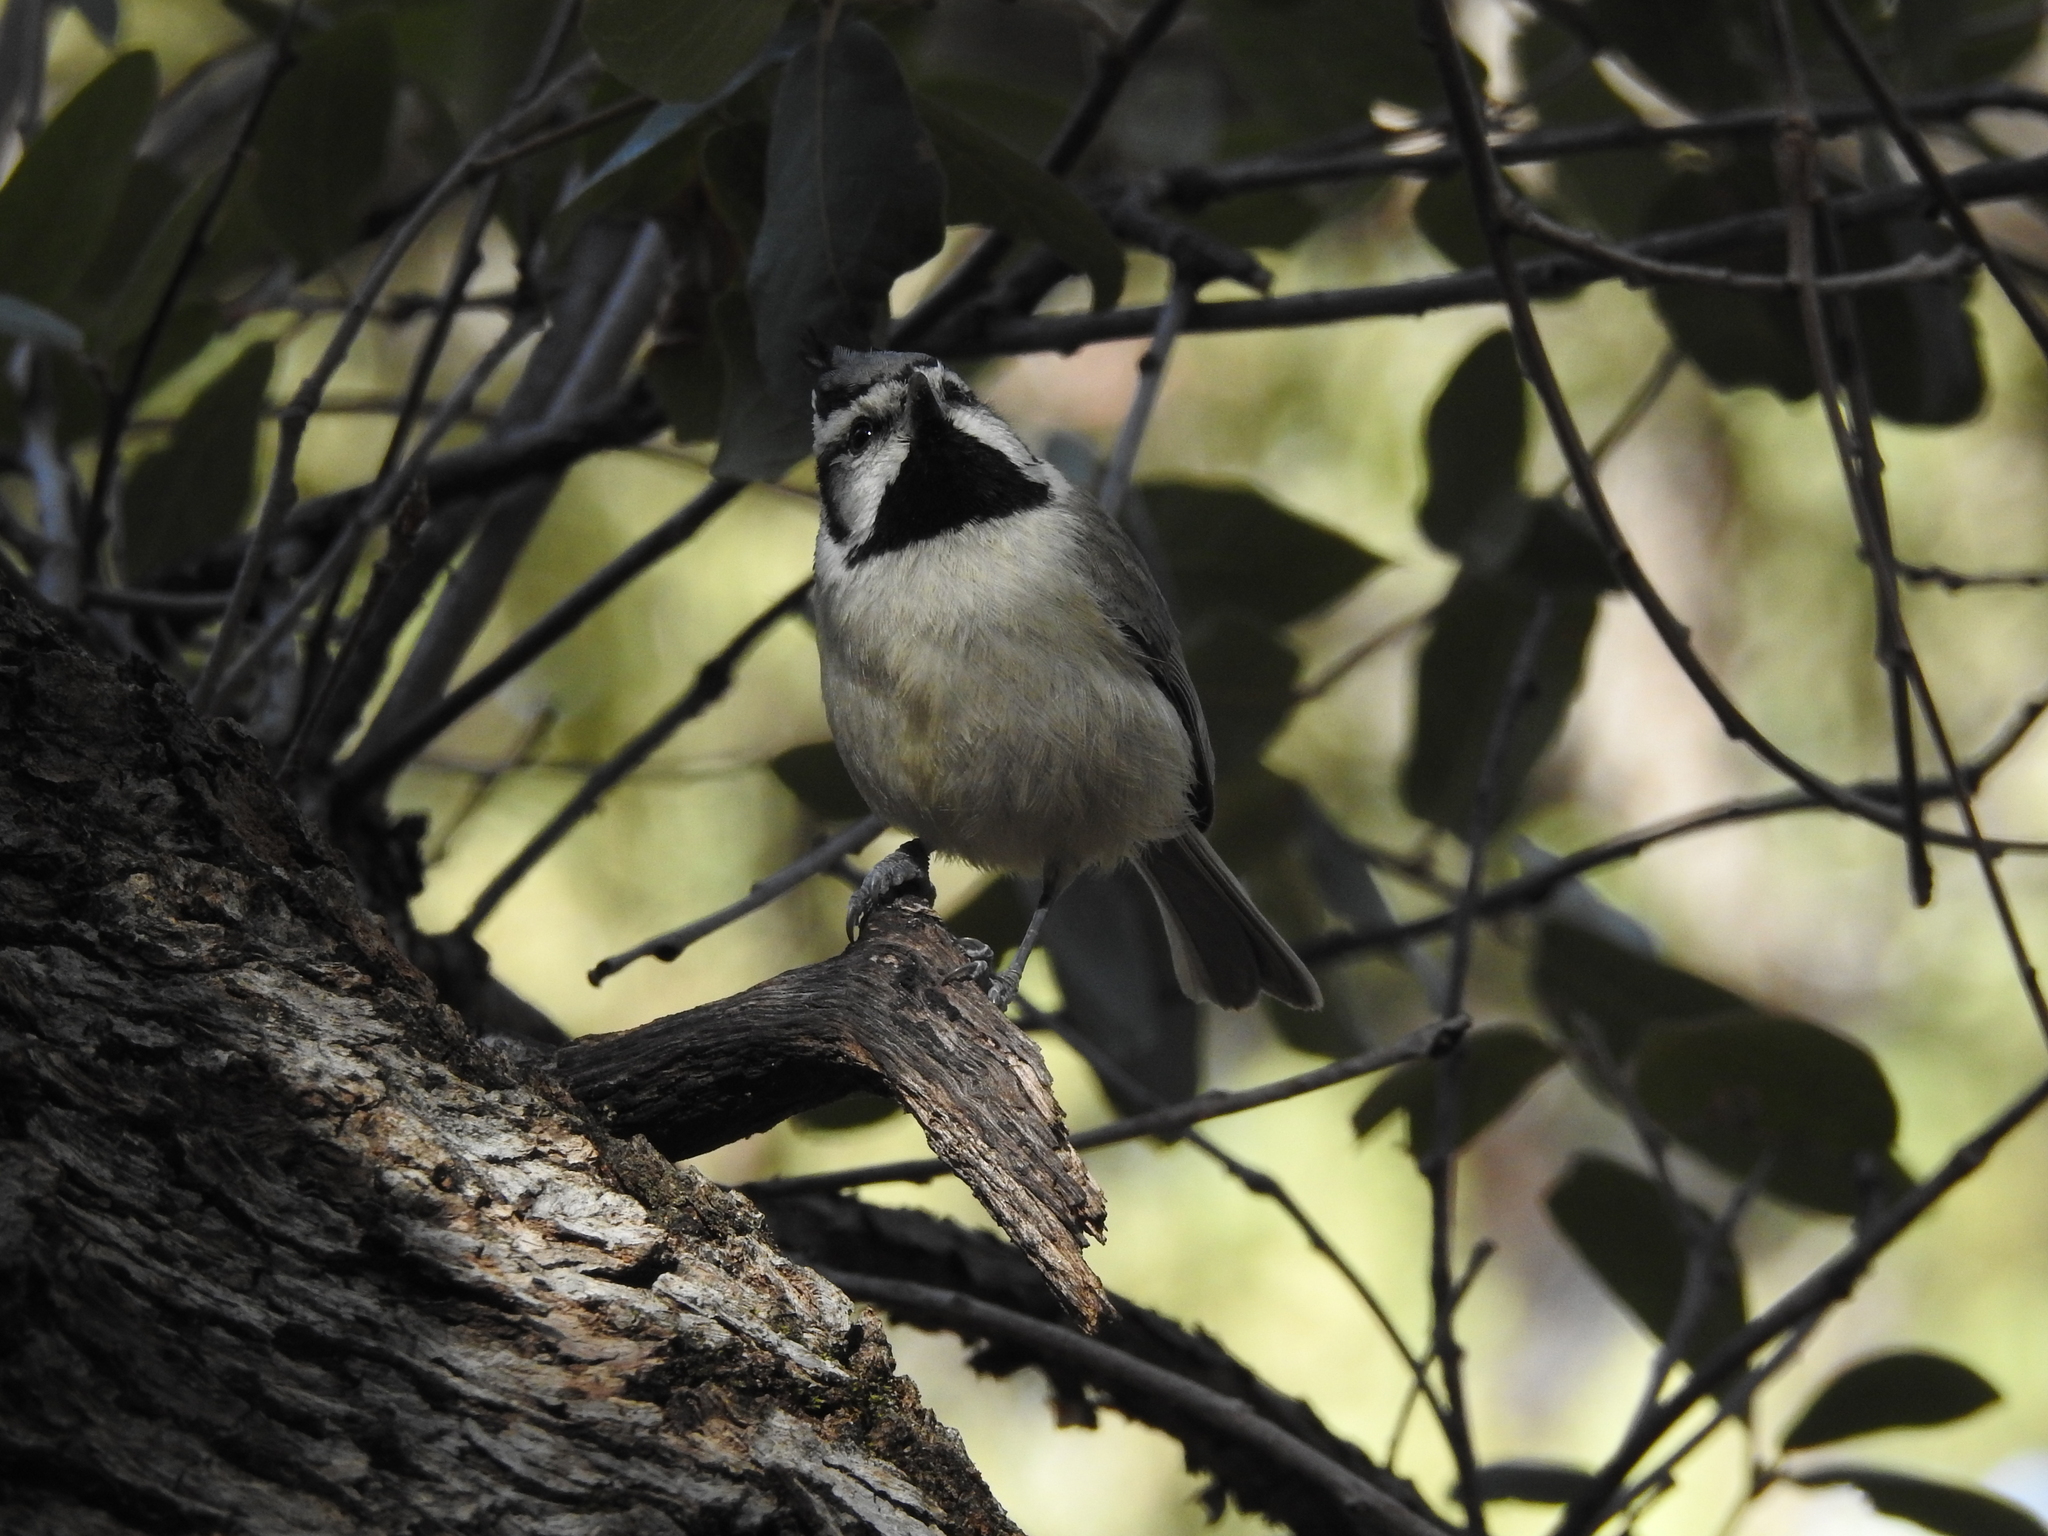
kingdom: Animalia
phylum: Chordata
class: Aves
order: Passeriformes
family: Paridae
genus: Baeolophus
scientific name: Baeolophus wollweberi
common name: Bridled titmouse
